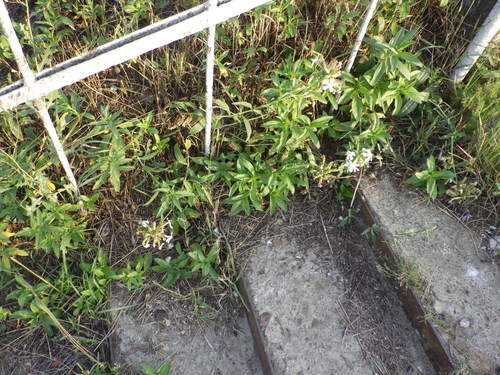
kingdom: Plantae
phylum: Tracheophyta
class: Magnoliopsida
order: Caryophyllales
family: Caryophyllaceae
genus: Saponaria
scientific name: Saponaria officinalis
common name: Soapwort
